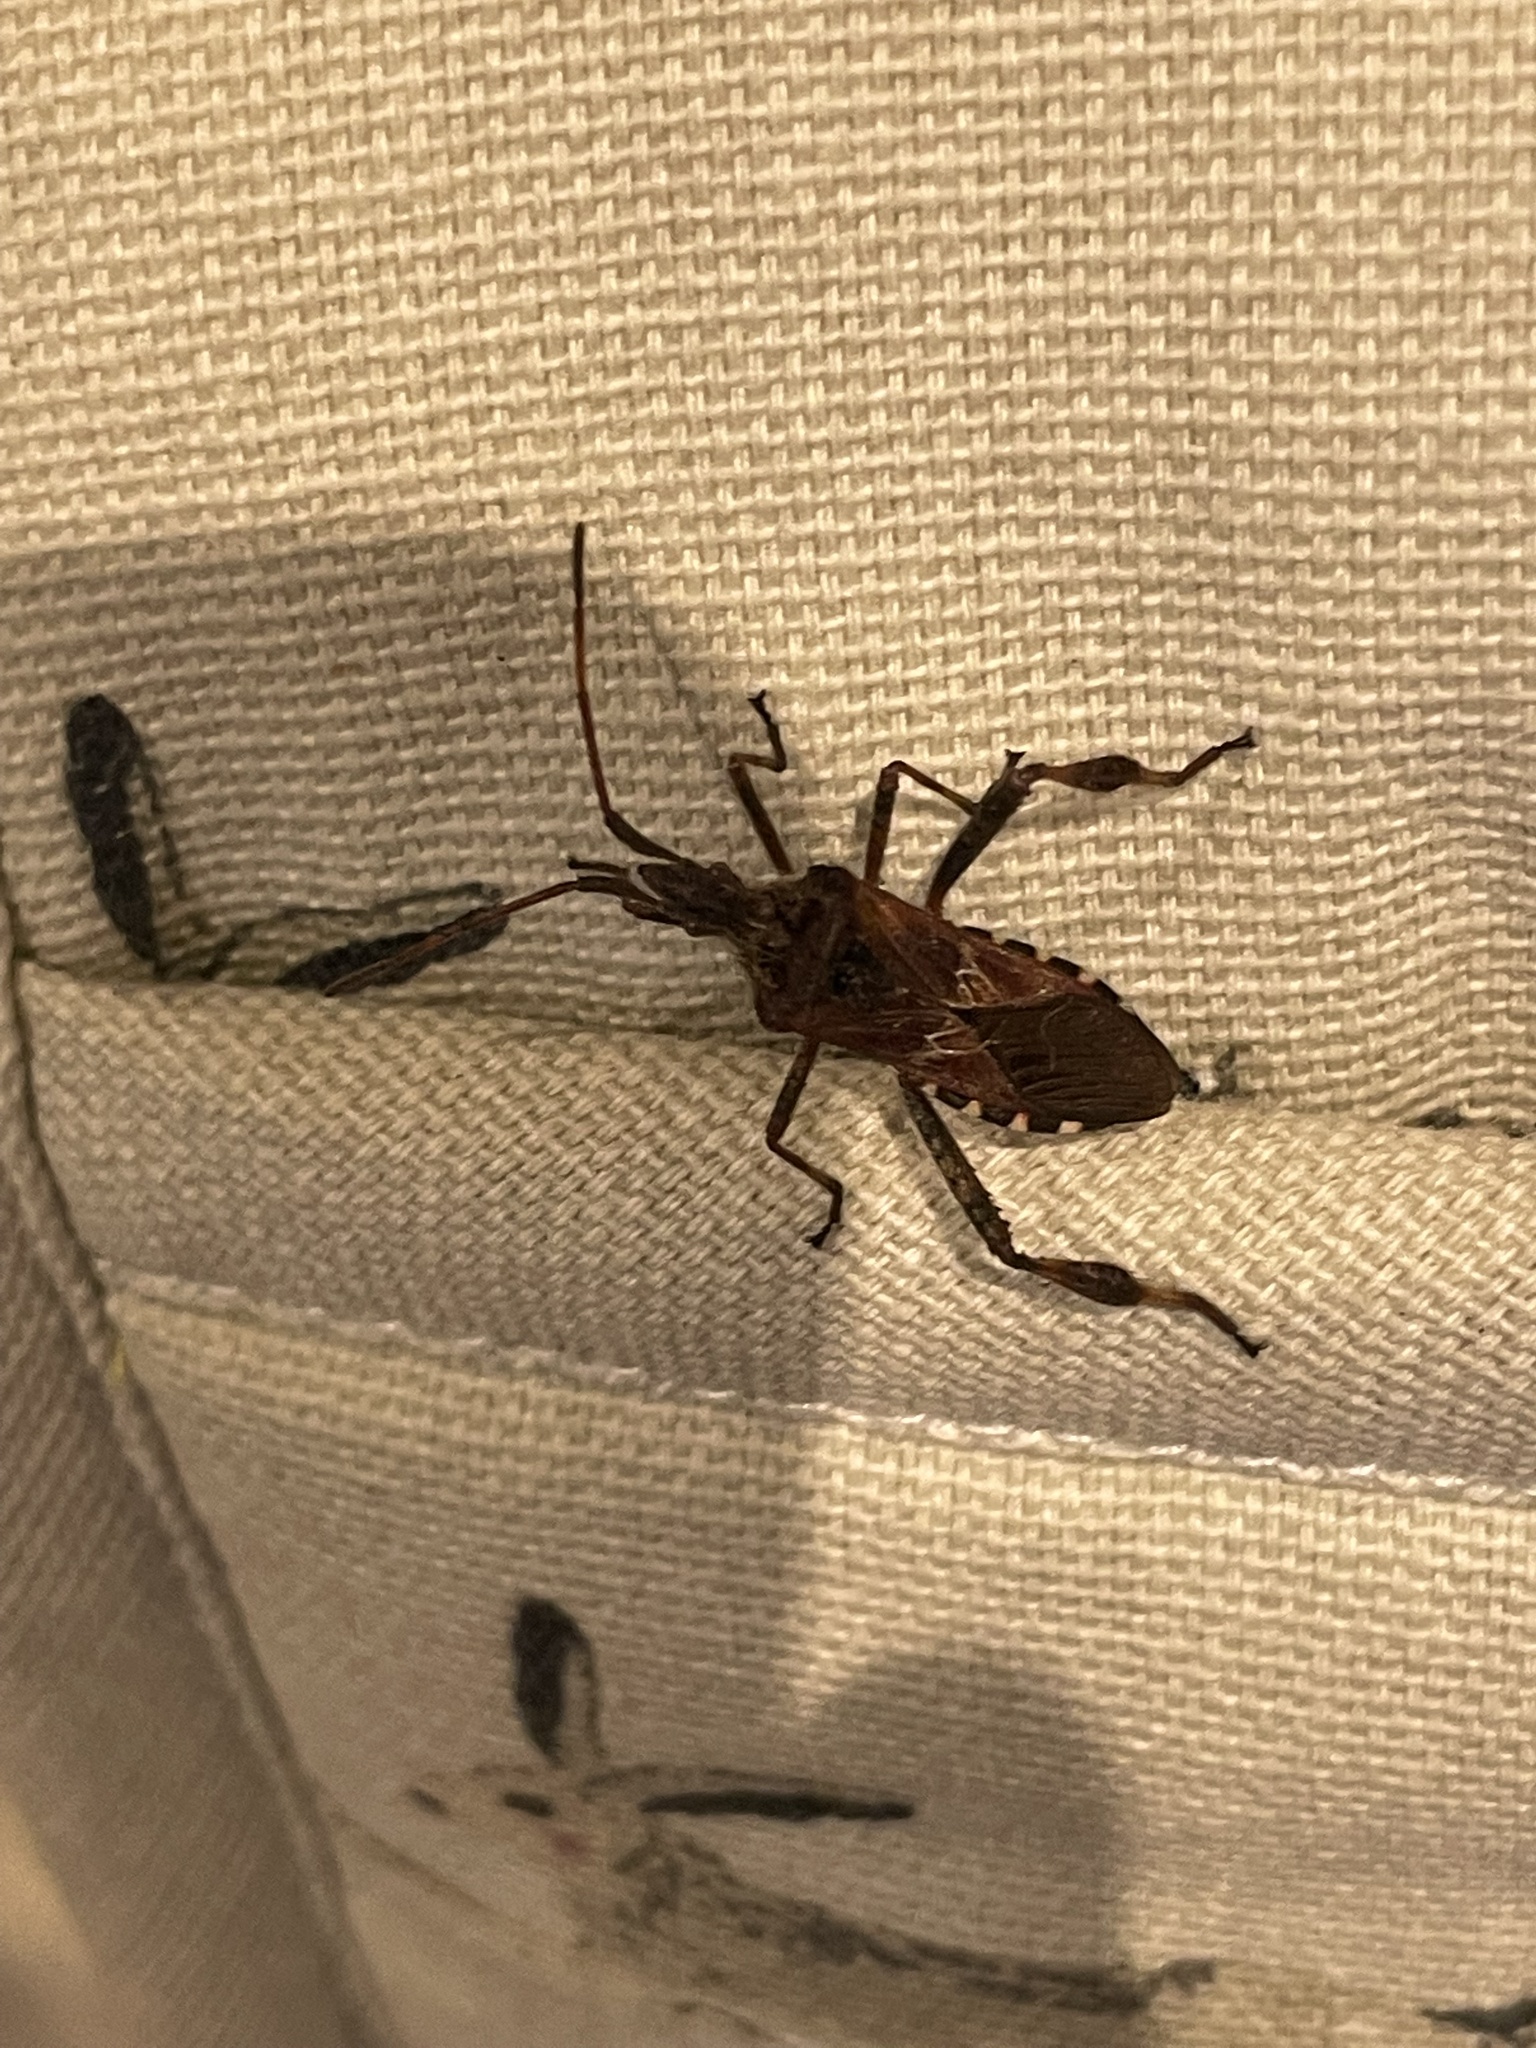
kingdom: Animalia
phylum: Arthropoda
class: Insecta
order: Hemiptera
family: Coreidae
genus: Leptoglossus
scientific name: Leptoglossus occidentalis
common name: Western conifer-seed bug
